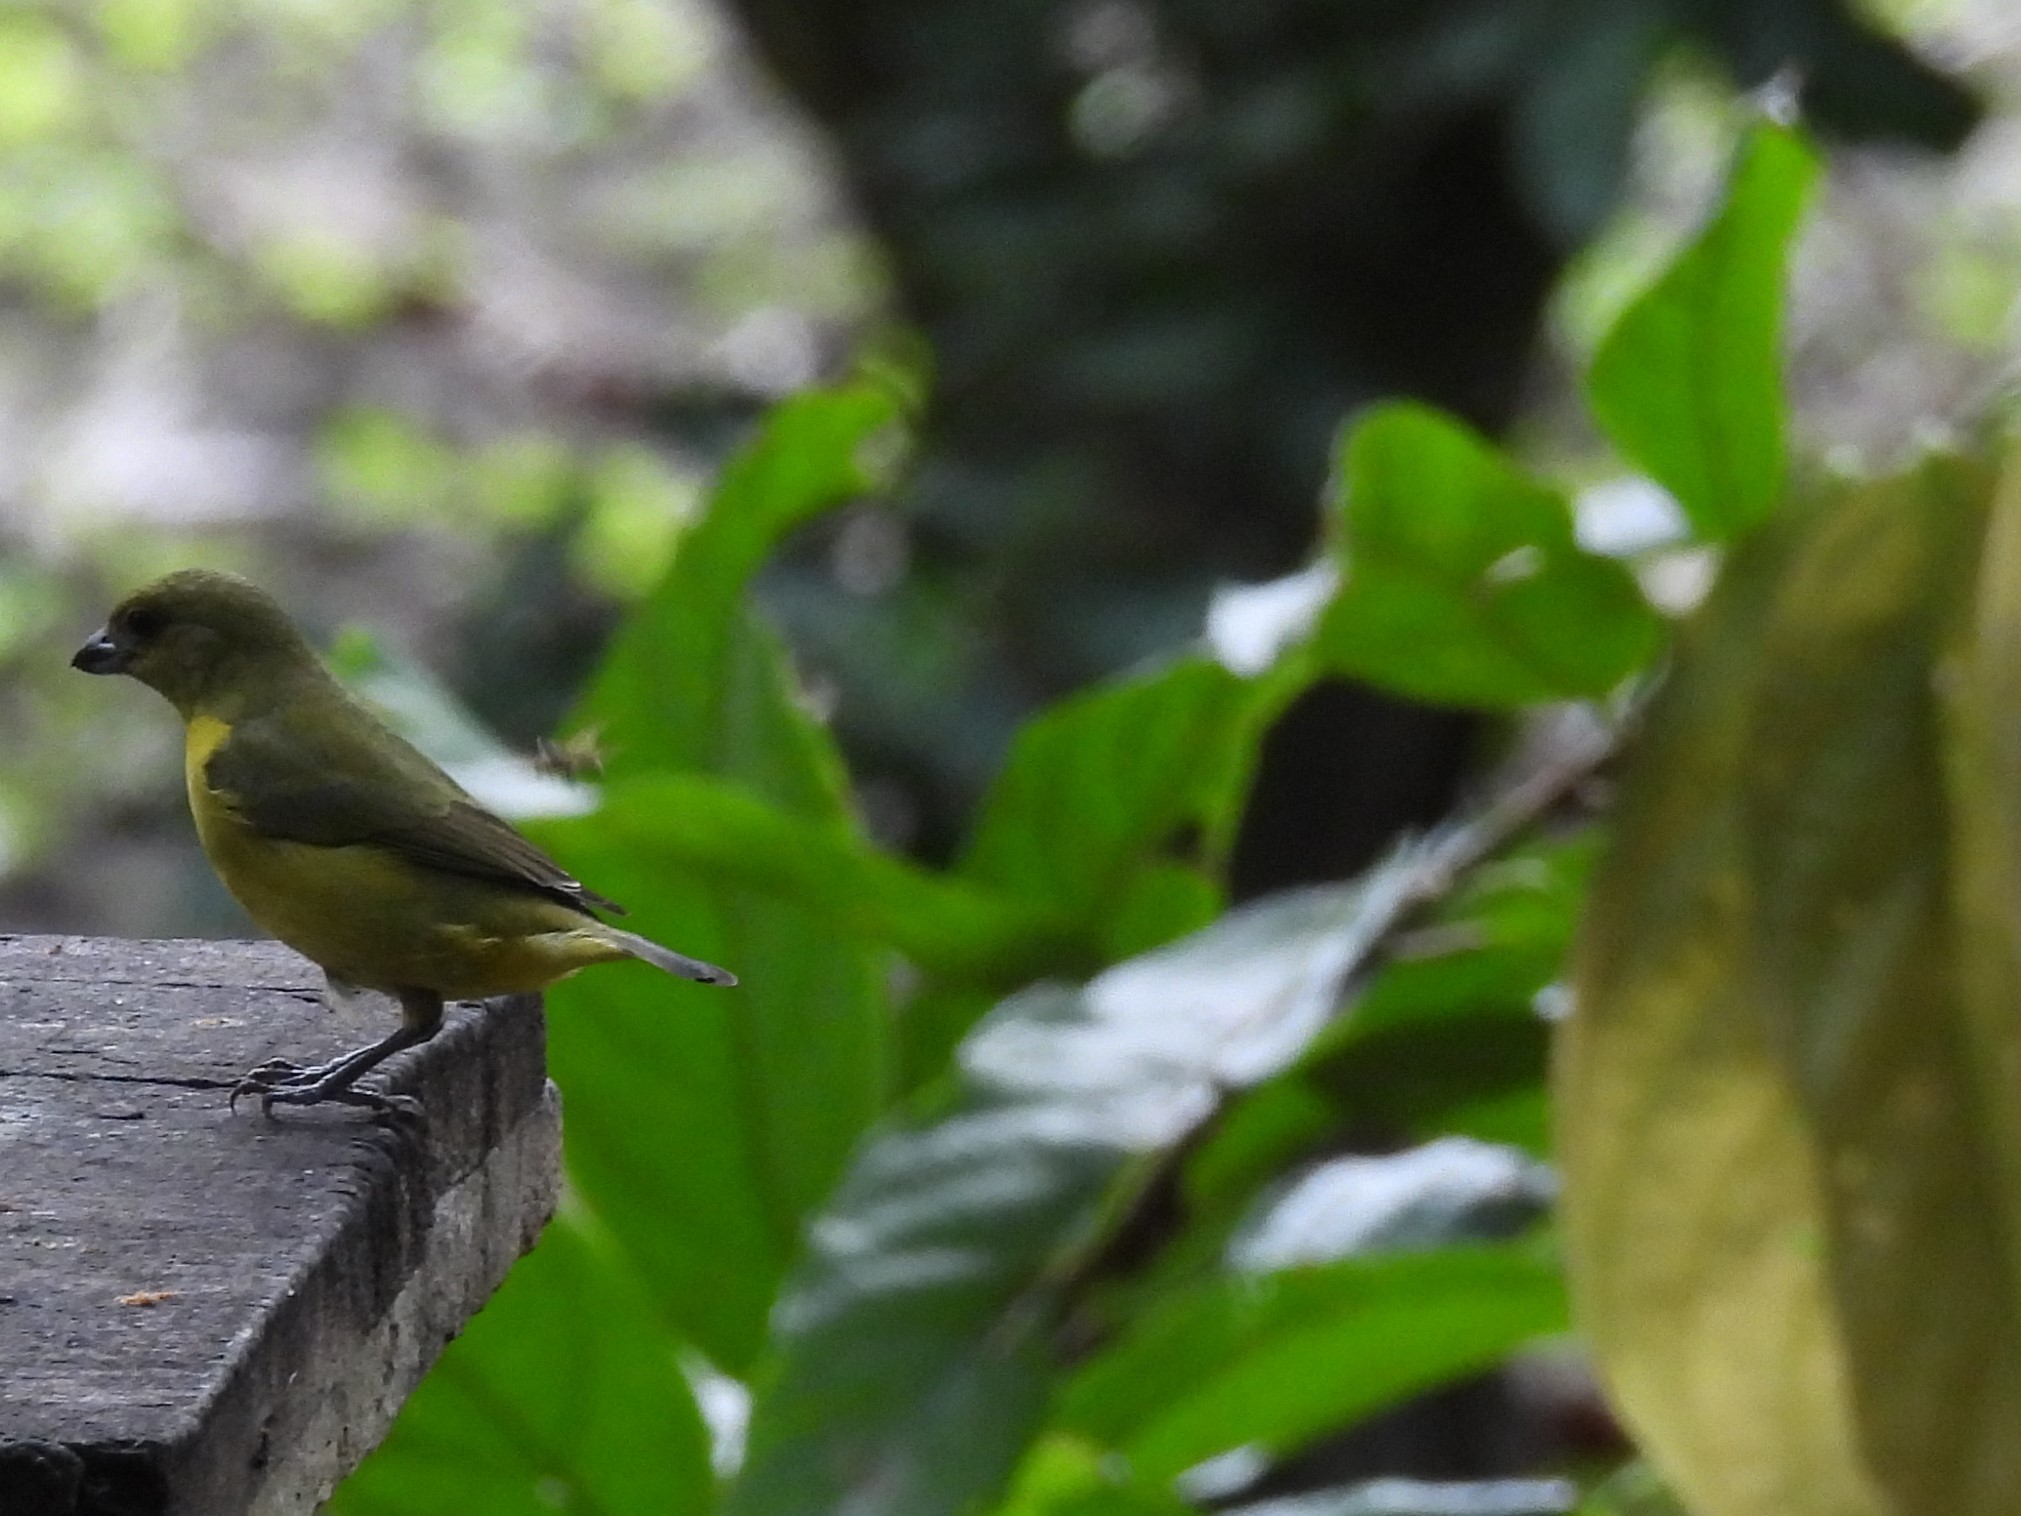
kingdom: Animalia
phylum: Chordata
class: Aves
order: Passeriformes
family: Fringillidae
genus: Euphonia
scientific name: Euphonia laniirostris
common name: Thick-billed euphonia
